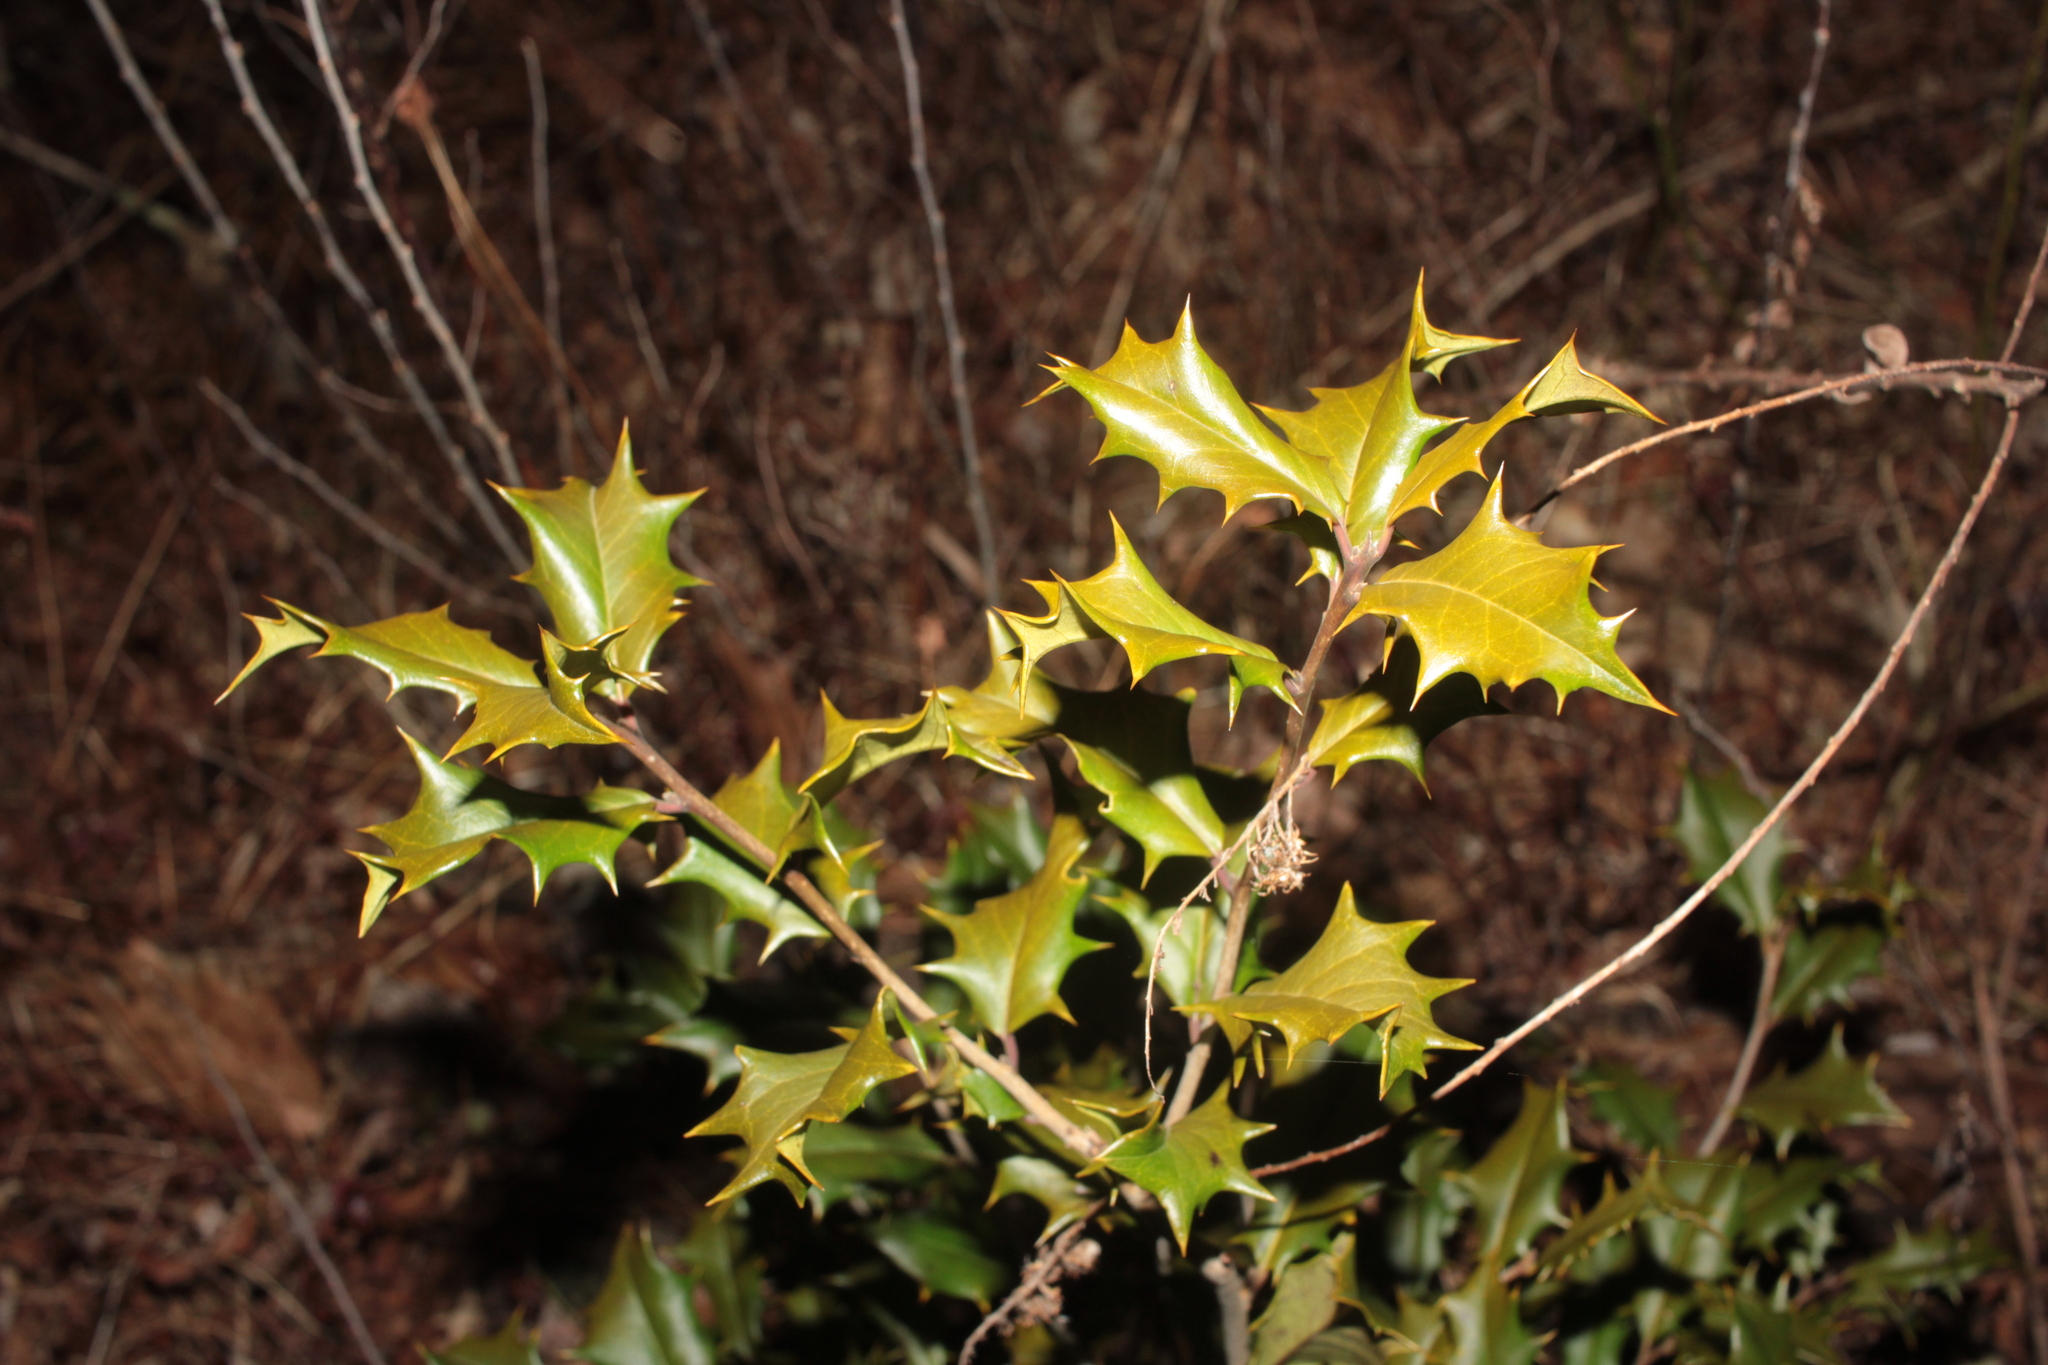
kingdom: Plantae
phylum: Tracheophyta
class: Magnoliopsida
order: Aquifoliales
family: Aquifoliaceae
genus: Ilex
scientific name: Ilex
